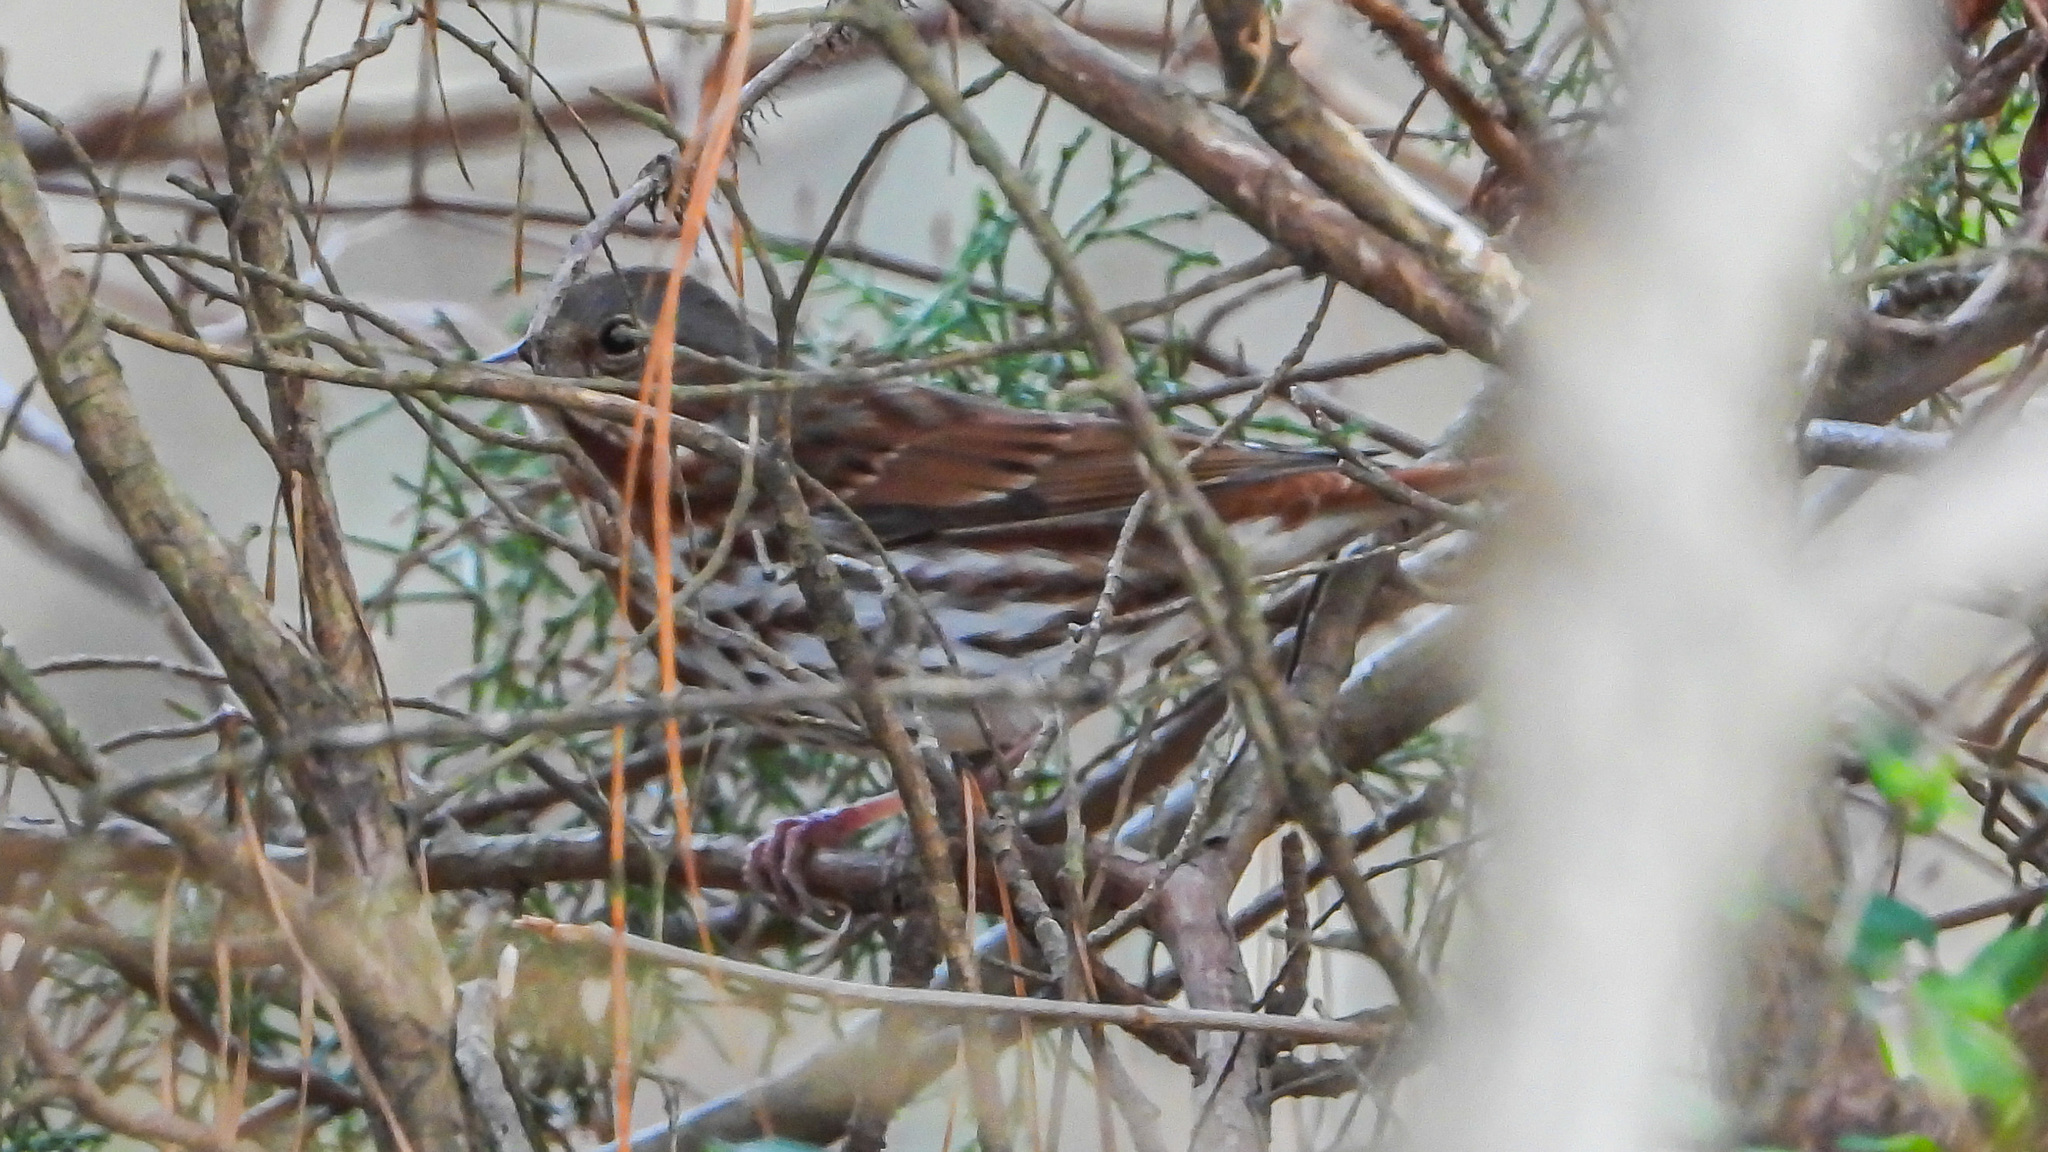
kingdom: Animalia
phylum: Chordata
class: Aves
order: Passeriformes
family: Passerellidae
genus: Passerella
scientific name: Passerella iliaca
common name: Fox sparrow
